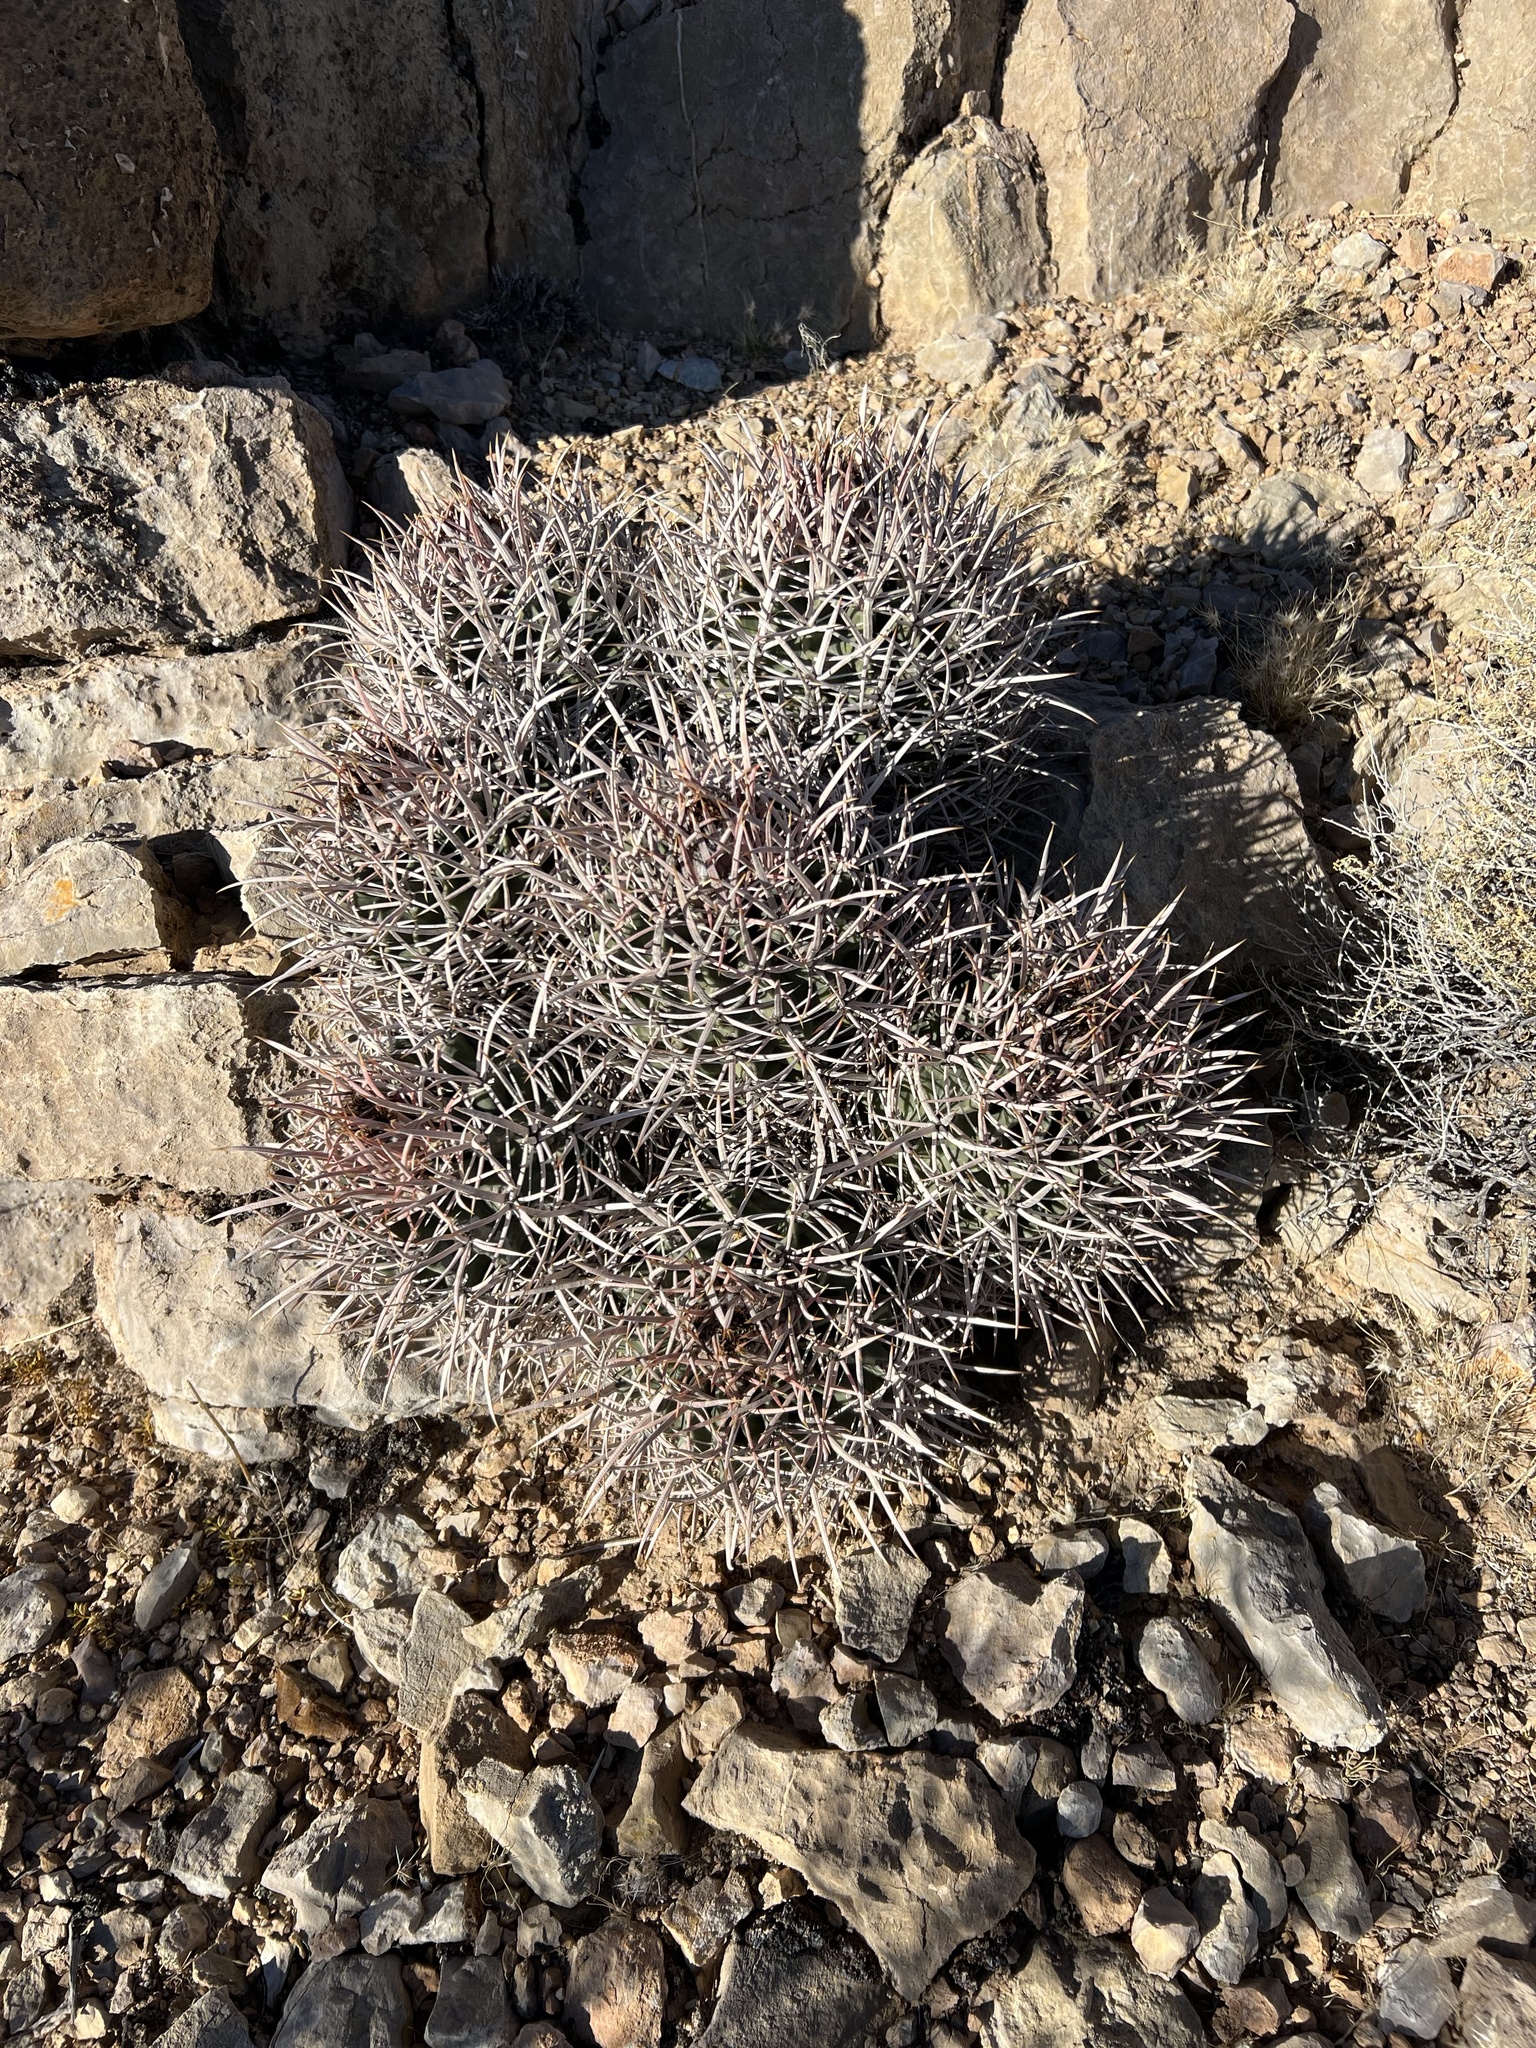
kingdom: Plantae
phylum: Tracheophyta
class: Magnoliopsida
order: Caryophyllales
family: Cactaceae
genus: Echinocactus
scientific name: Echinocactus polycephalus
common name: Cottontop cactus
